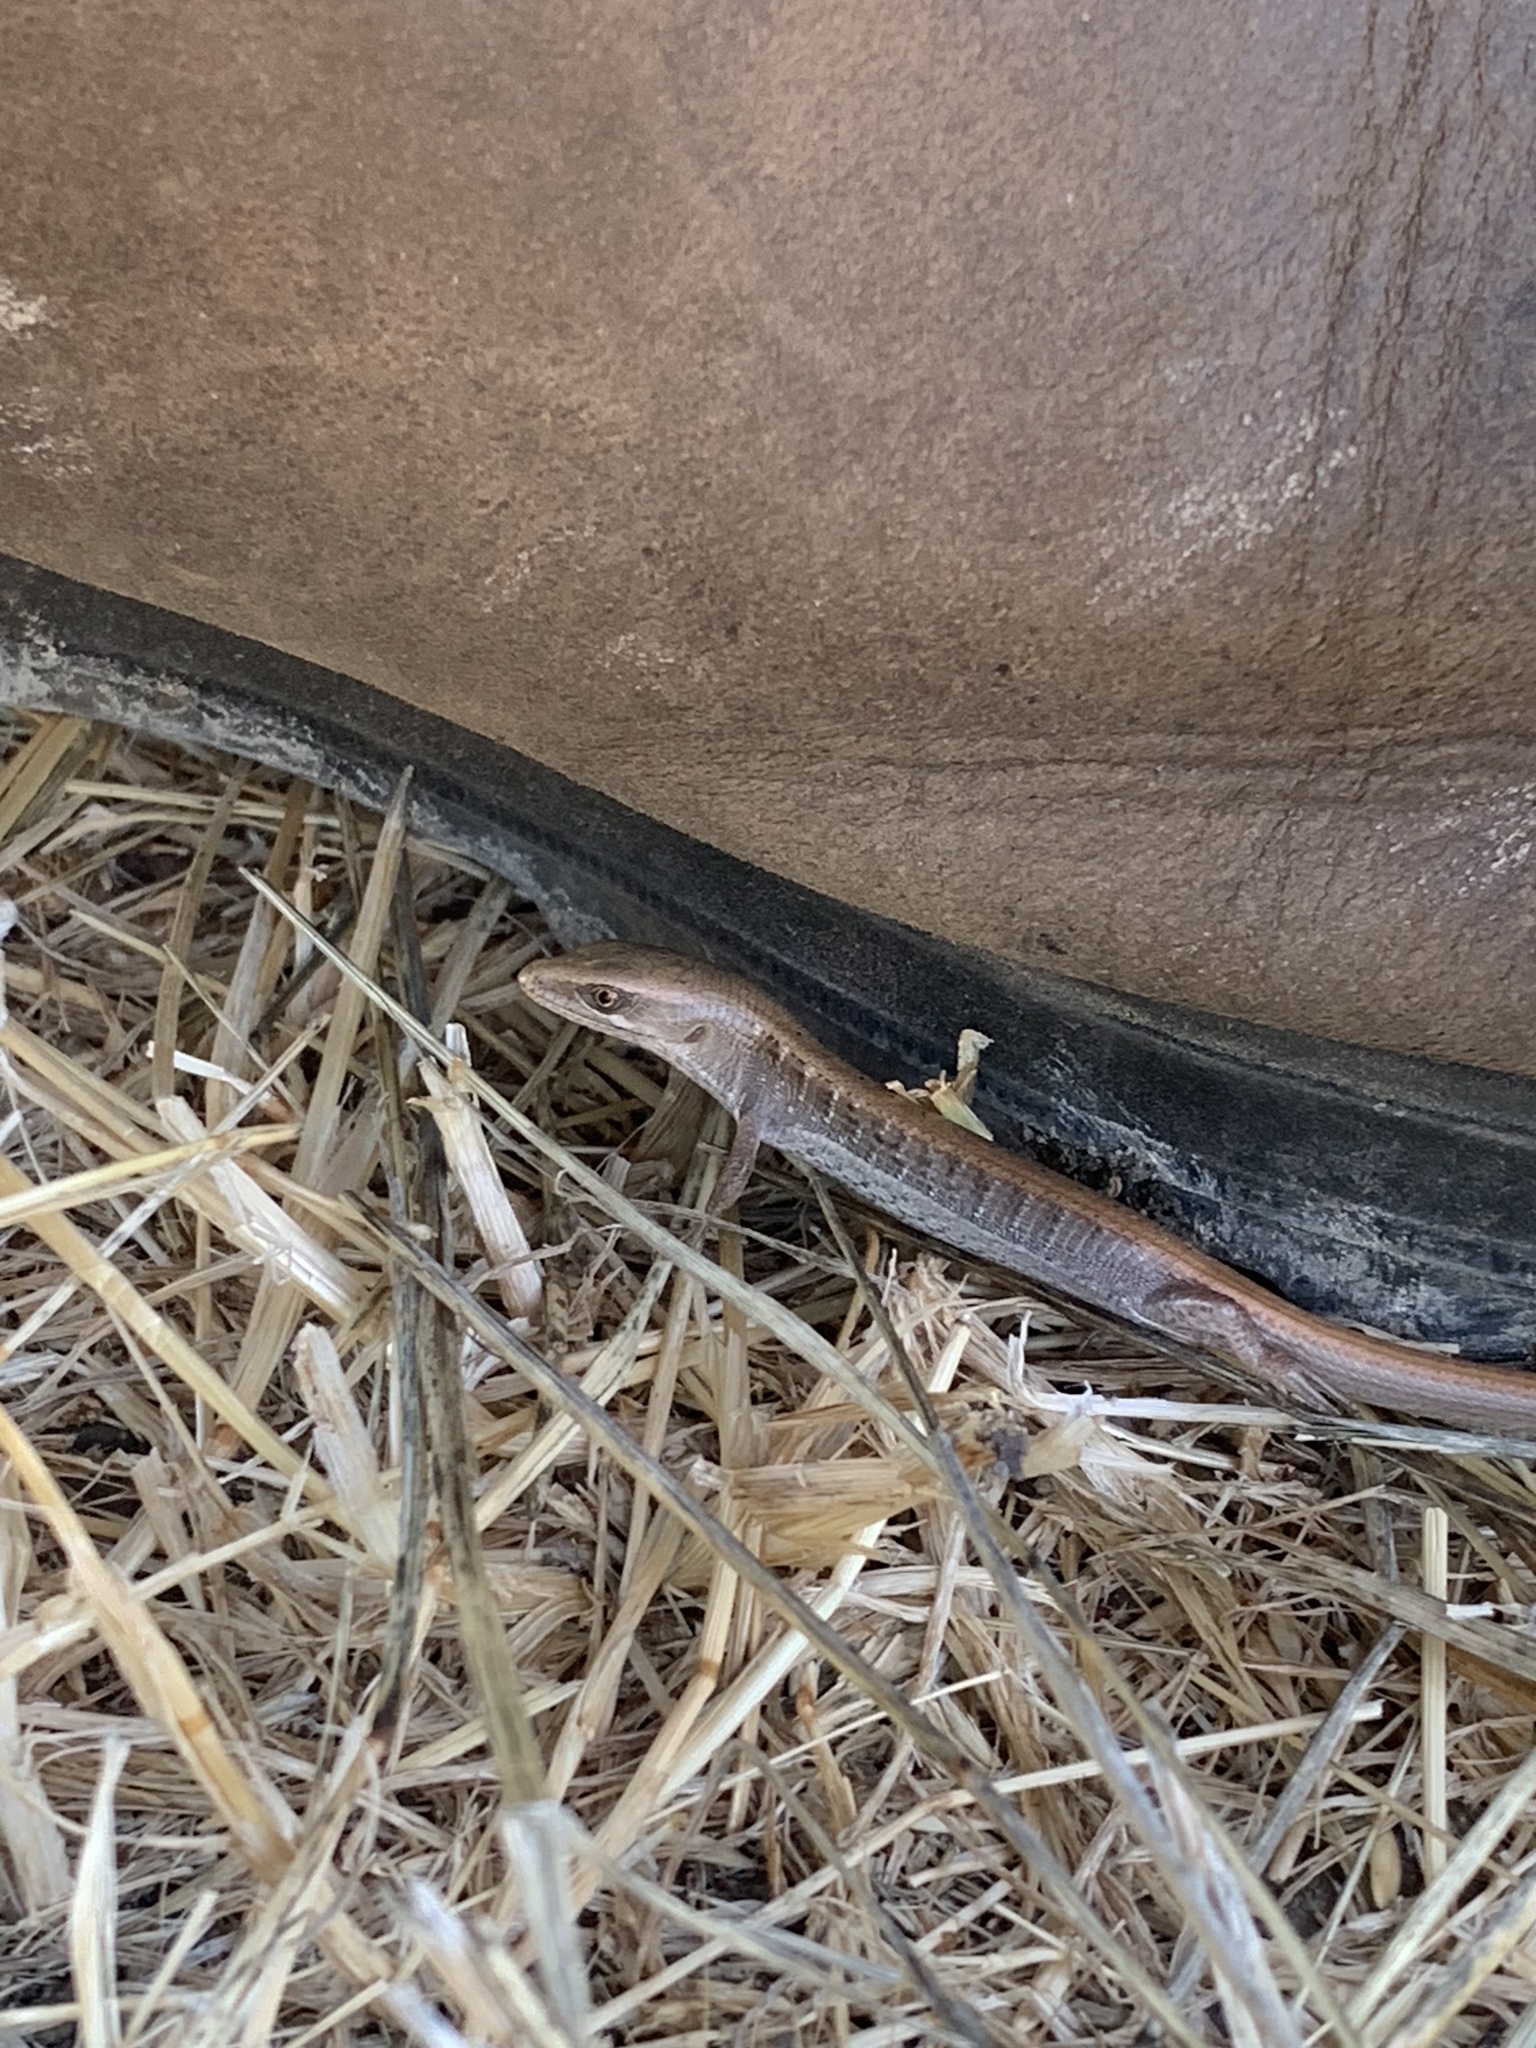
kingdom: Animalia
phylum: Chordata
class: Squamata
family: Anguidae
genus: Elgaria
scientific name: Elgaria multicarinata
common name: Southern alligator lizard
